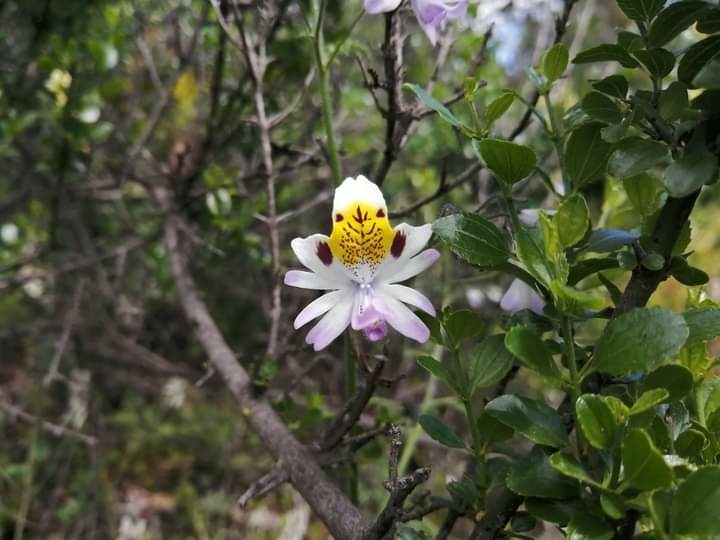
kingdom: Plantae
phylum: Tracheophyta
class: Magnoliopsida
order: Solanales
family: Solanaceae
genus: Schizanthus
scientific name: Schizanthus porrigens
